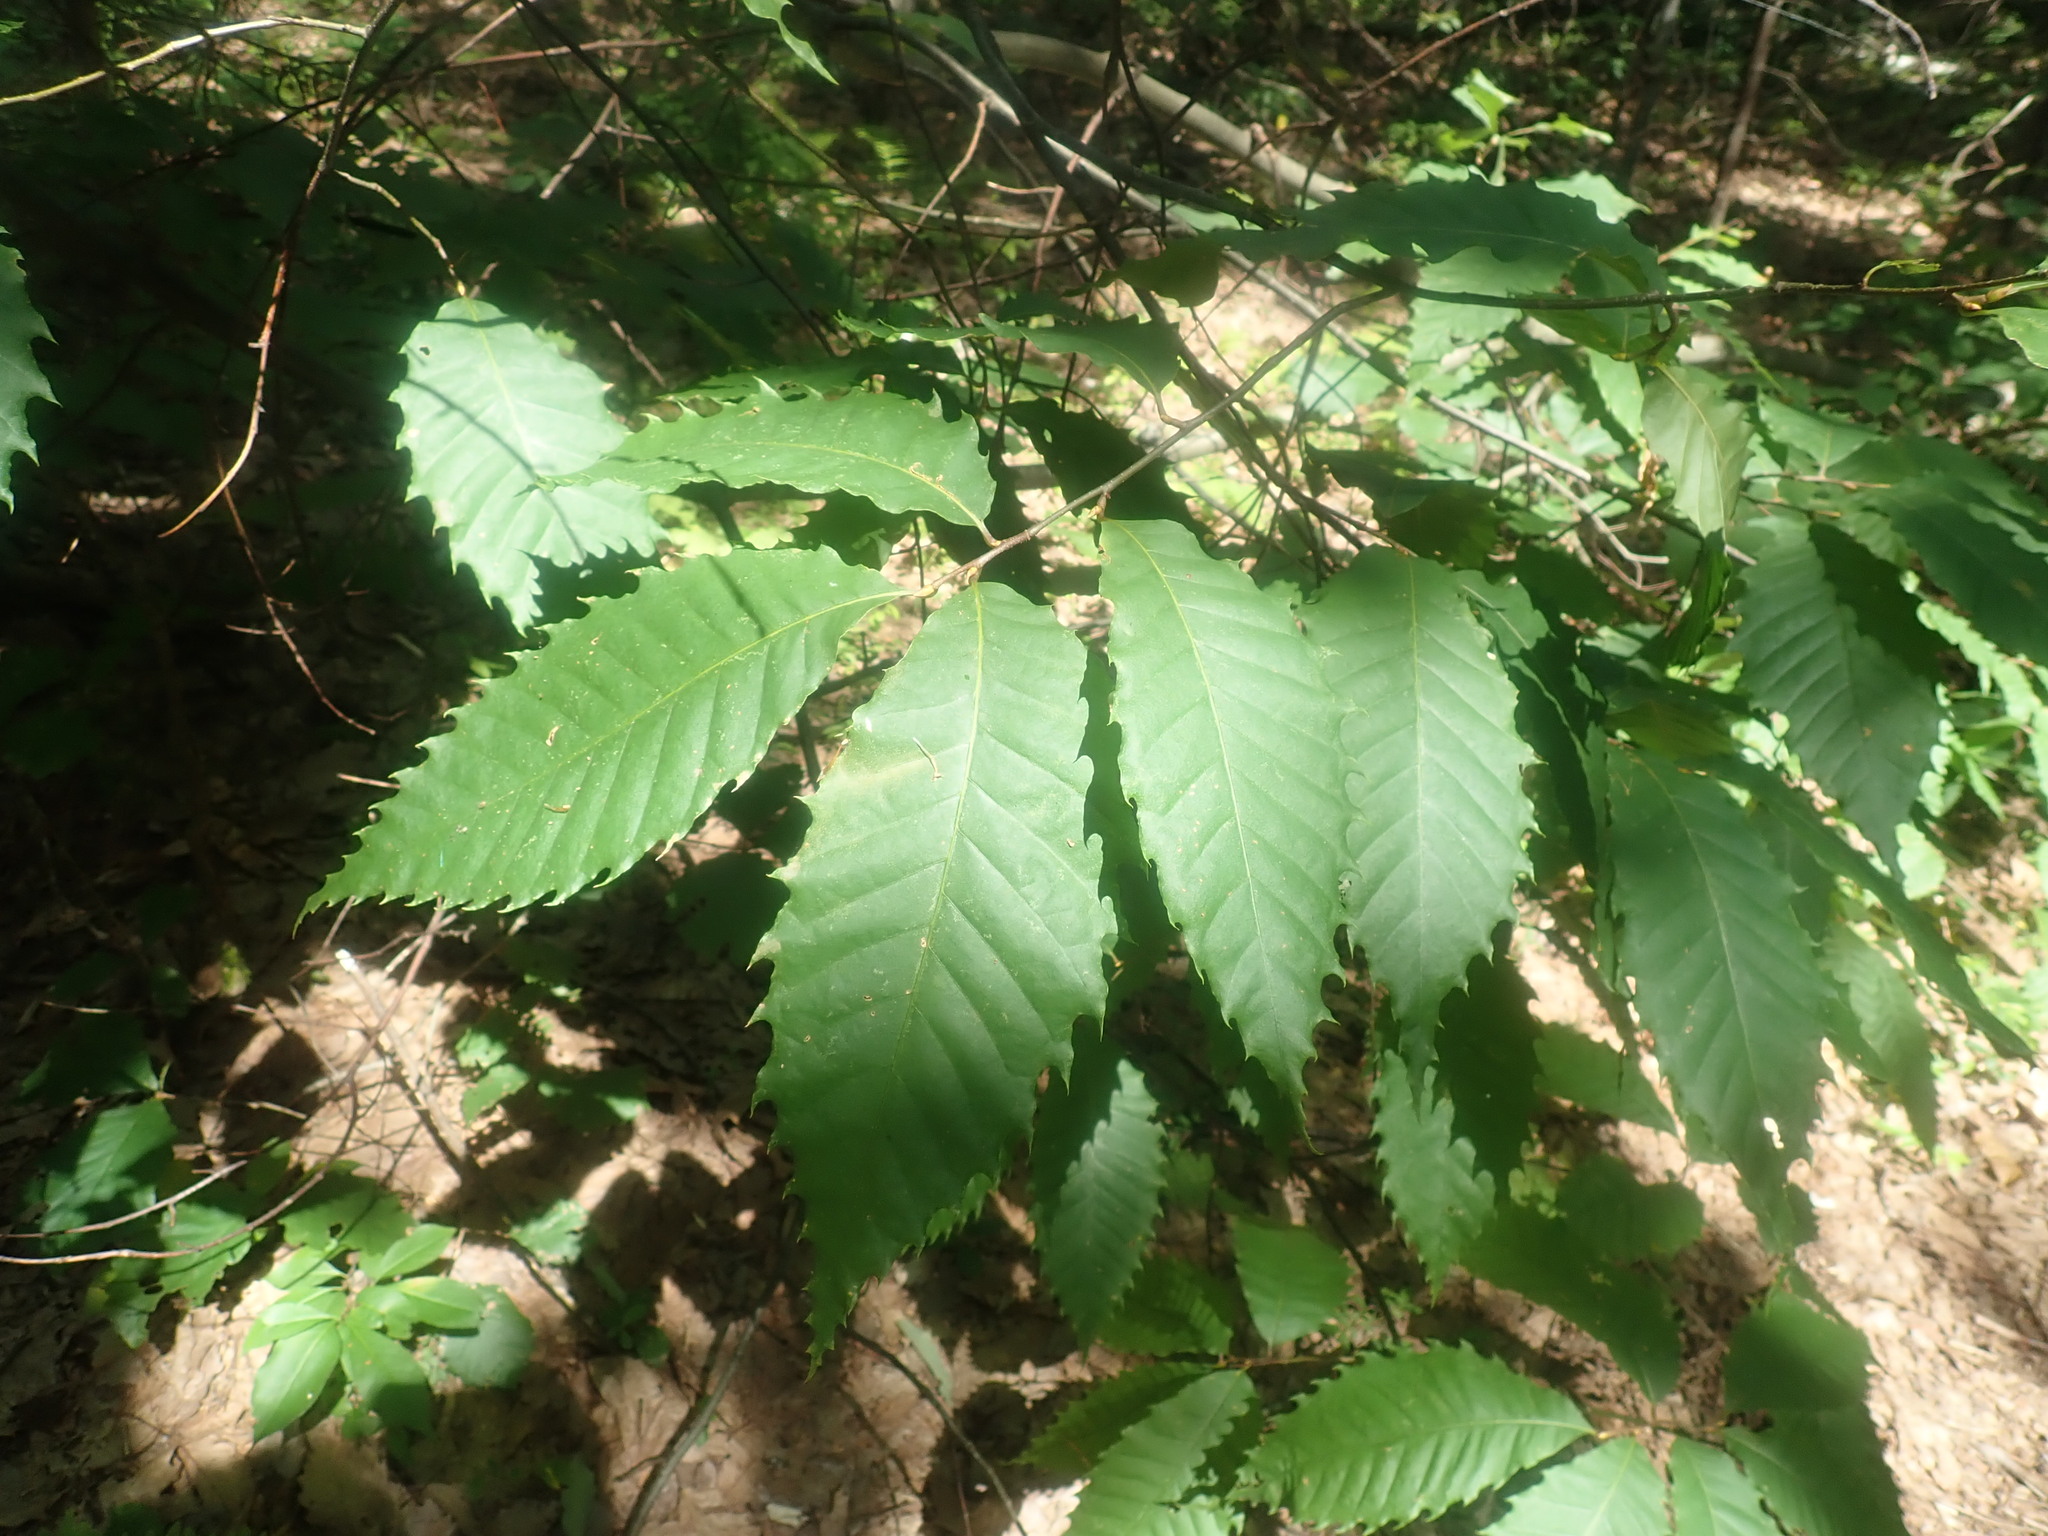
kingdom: Plantae
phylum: Tracheophyta
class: Magnoliopsida
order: Fagales
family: Fagaceae
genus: Castanea
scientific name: Castanea dentata
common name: American chestnut
